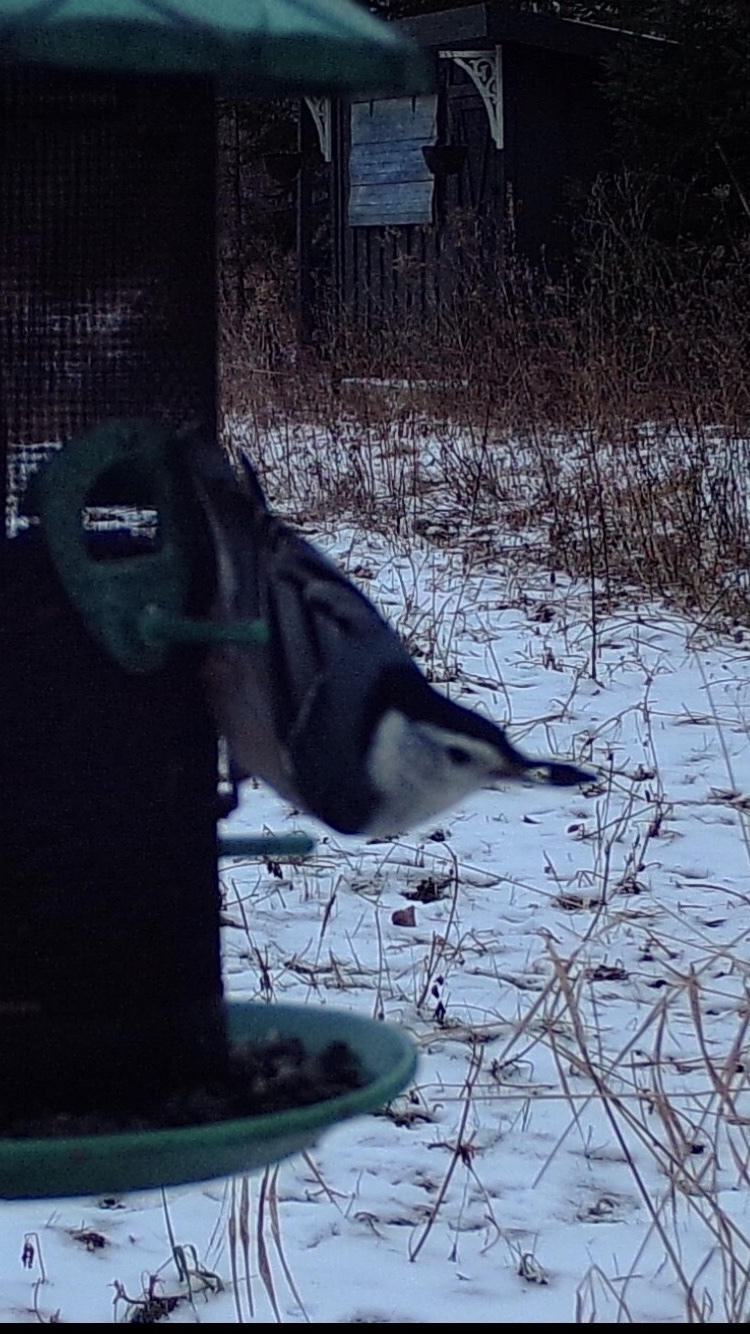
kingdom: Animalia
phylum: Chordata
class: Aves
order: Passeriformes
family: Sittidae
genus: Sitta
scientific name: Sitta carolinensis
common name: White-breasted nuthatch
